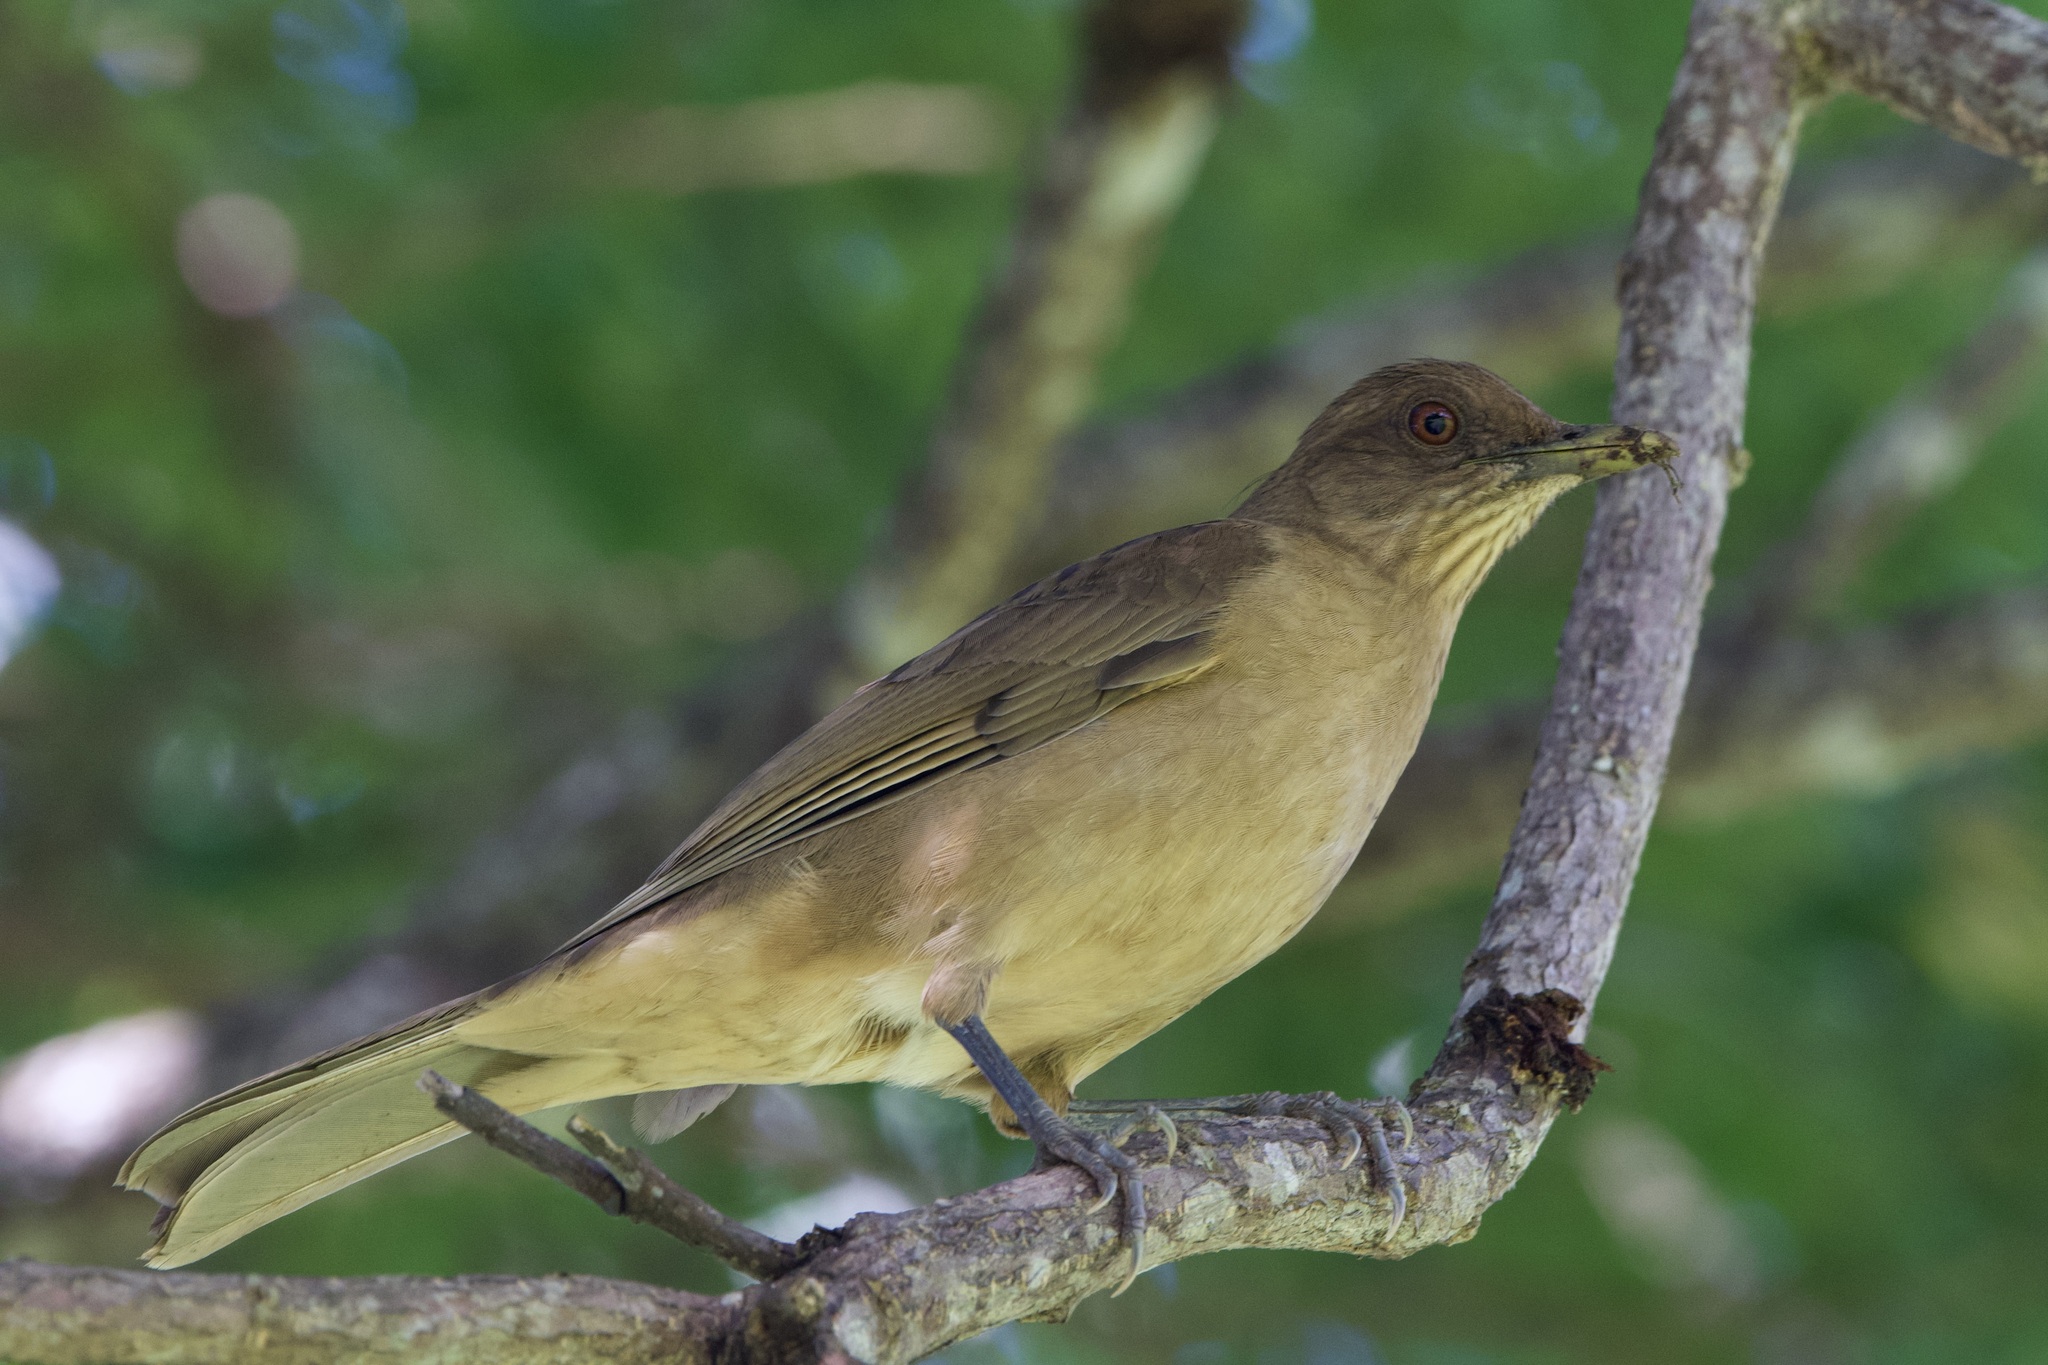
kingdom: Animalia
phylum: Chordata
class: Aves
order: Passeriformes
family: Turdidae
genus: Turdus
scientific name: Turdus grayi
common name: Clay-colored thrush
